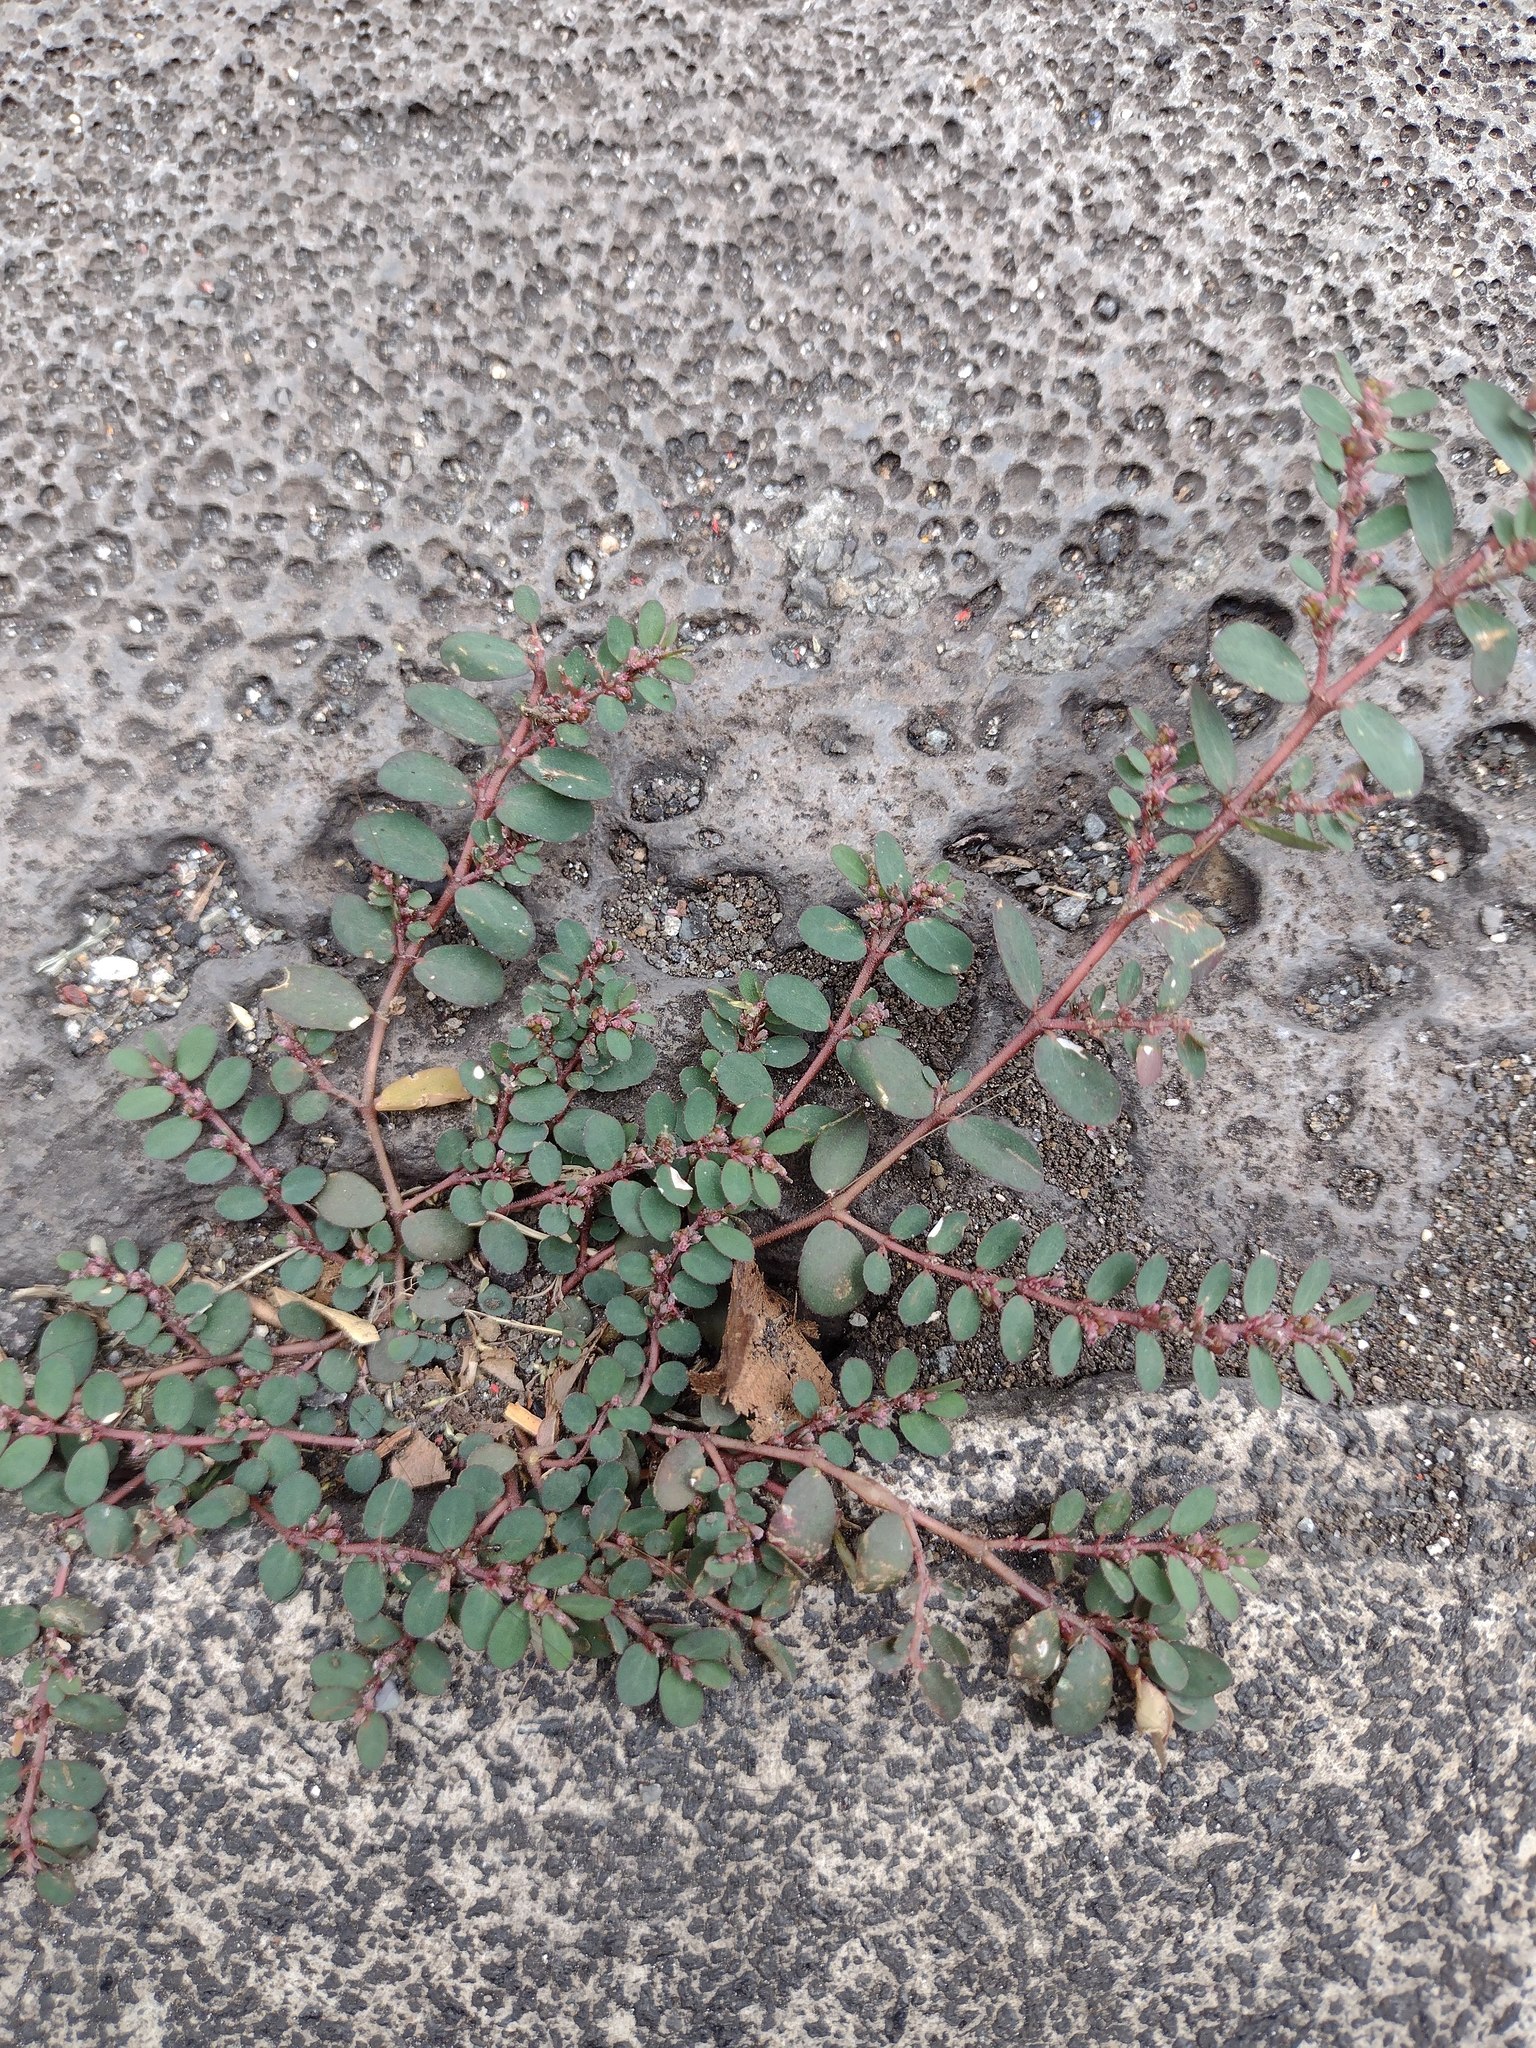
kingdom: Plantae
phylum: Tracheophyta
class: Magnoliopsida
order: Malpighiales
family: Euphorbiaceae
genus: Euphorbia
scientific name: Euphorbia prostrata
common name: Prostrate sandmat
